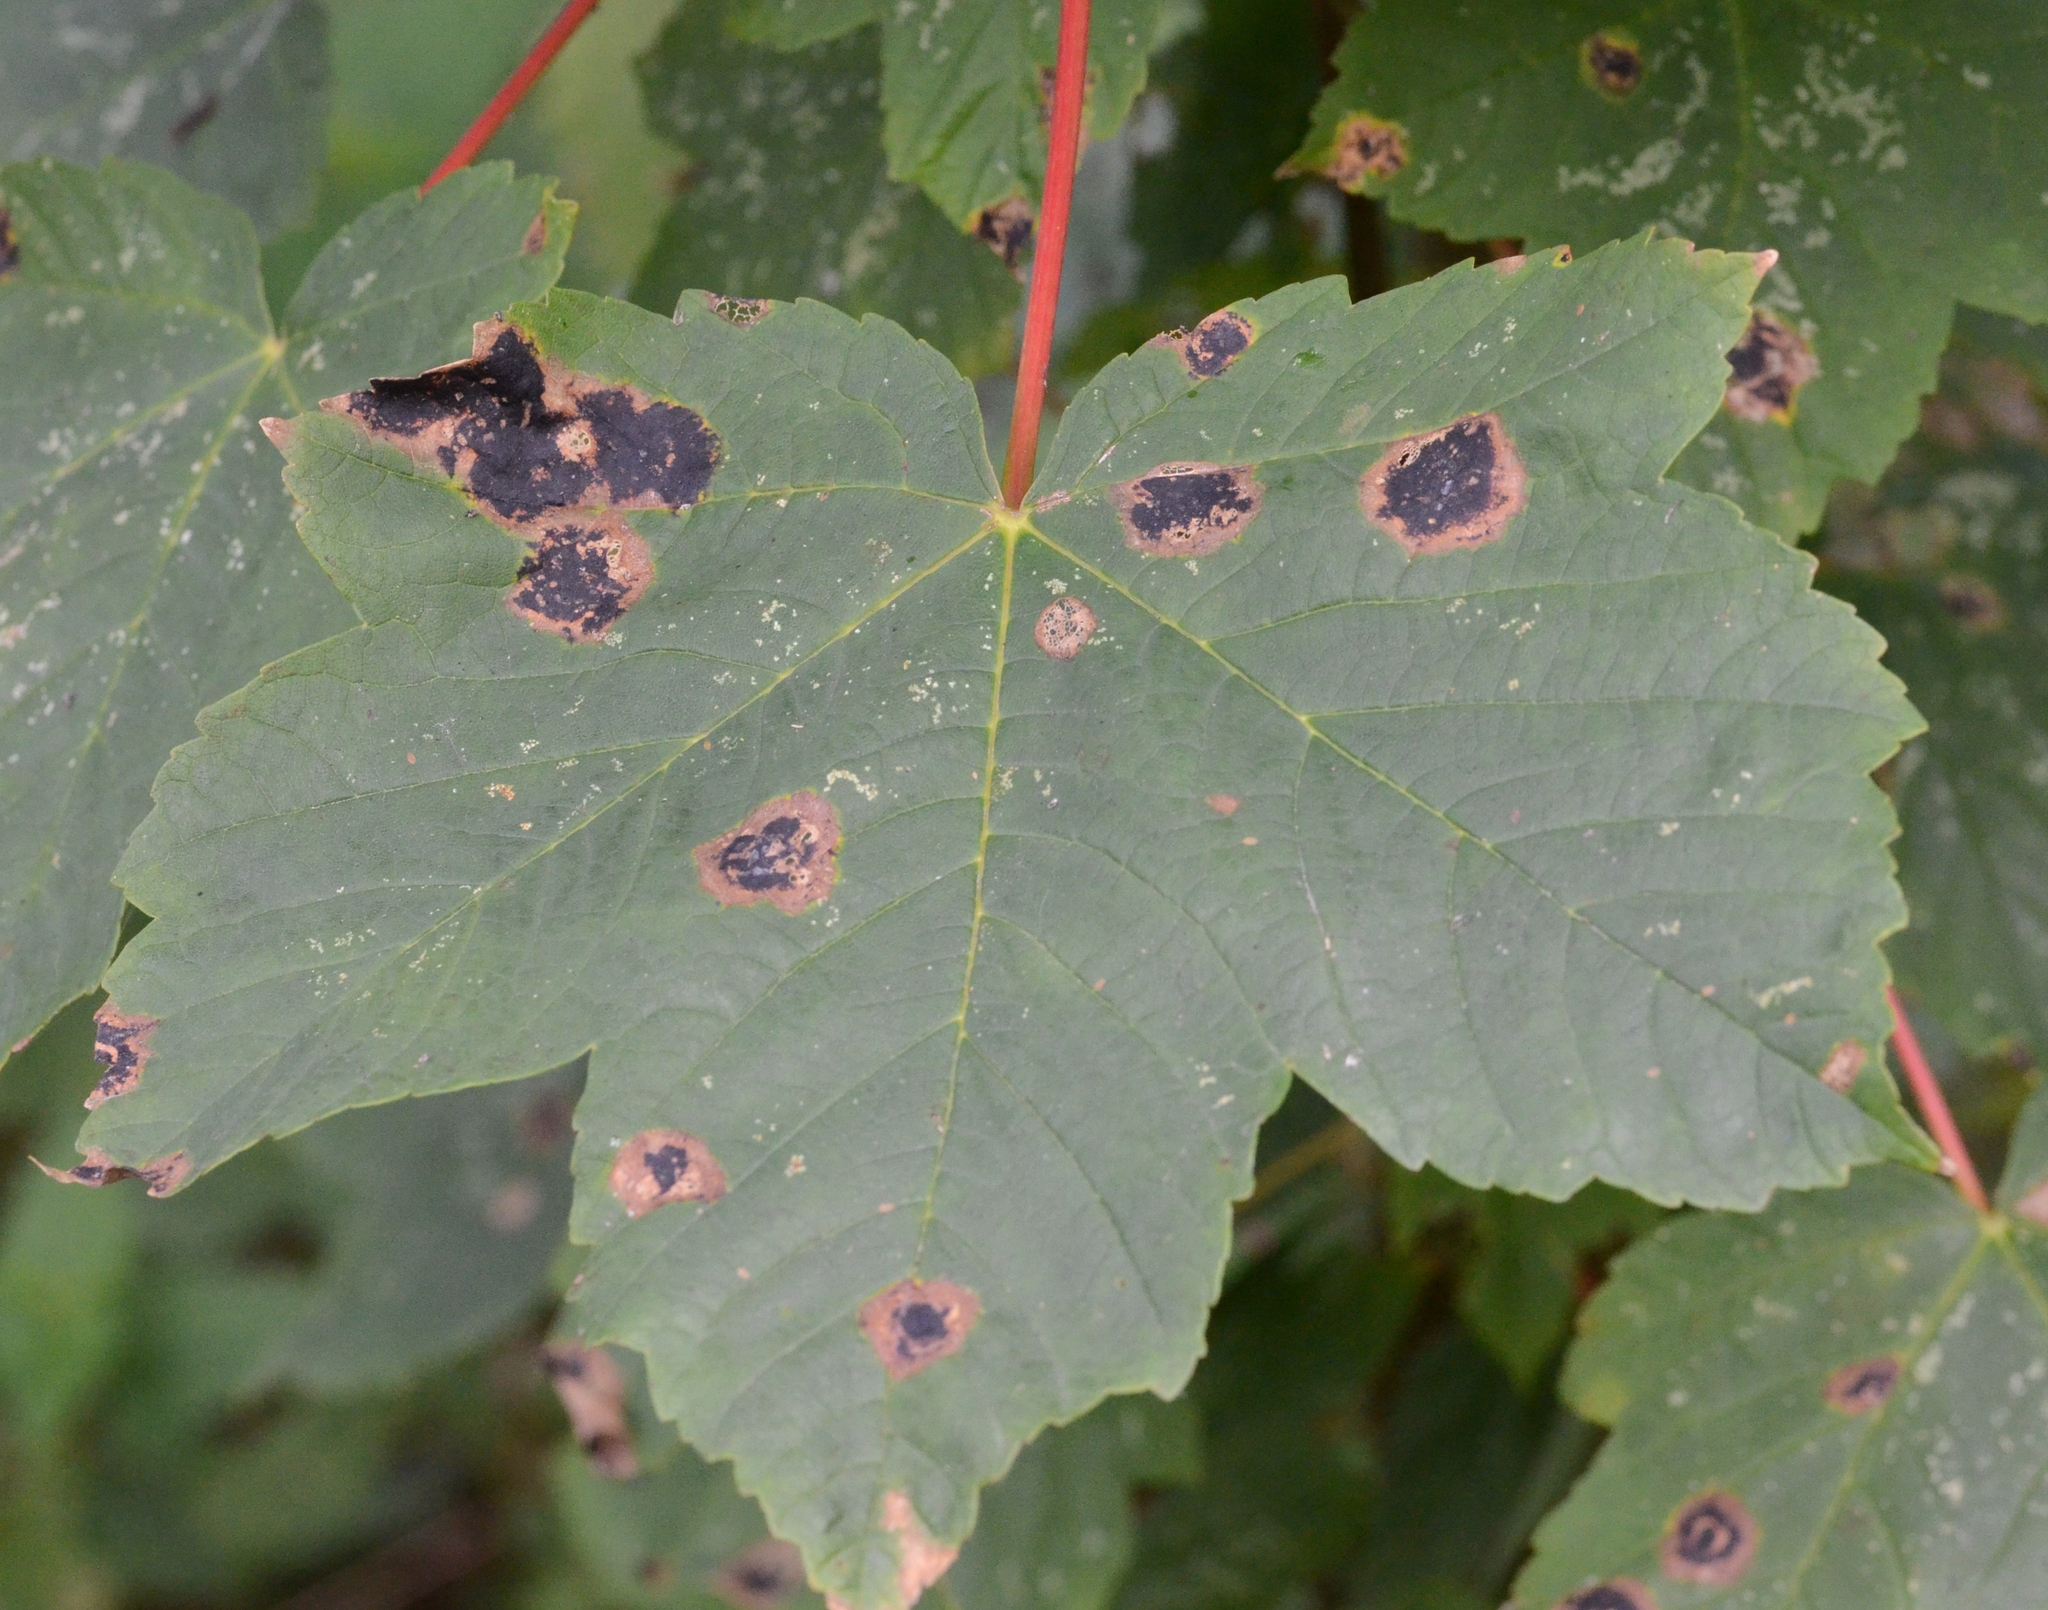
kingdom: Fungi
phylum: Ascomycota
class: Leotiomycetes
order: Rhytismatales
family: Rhytismataceae
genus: Rhytisma
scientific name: Rhytisma acerinum
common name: European tar spot
